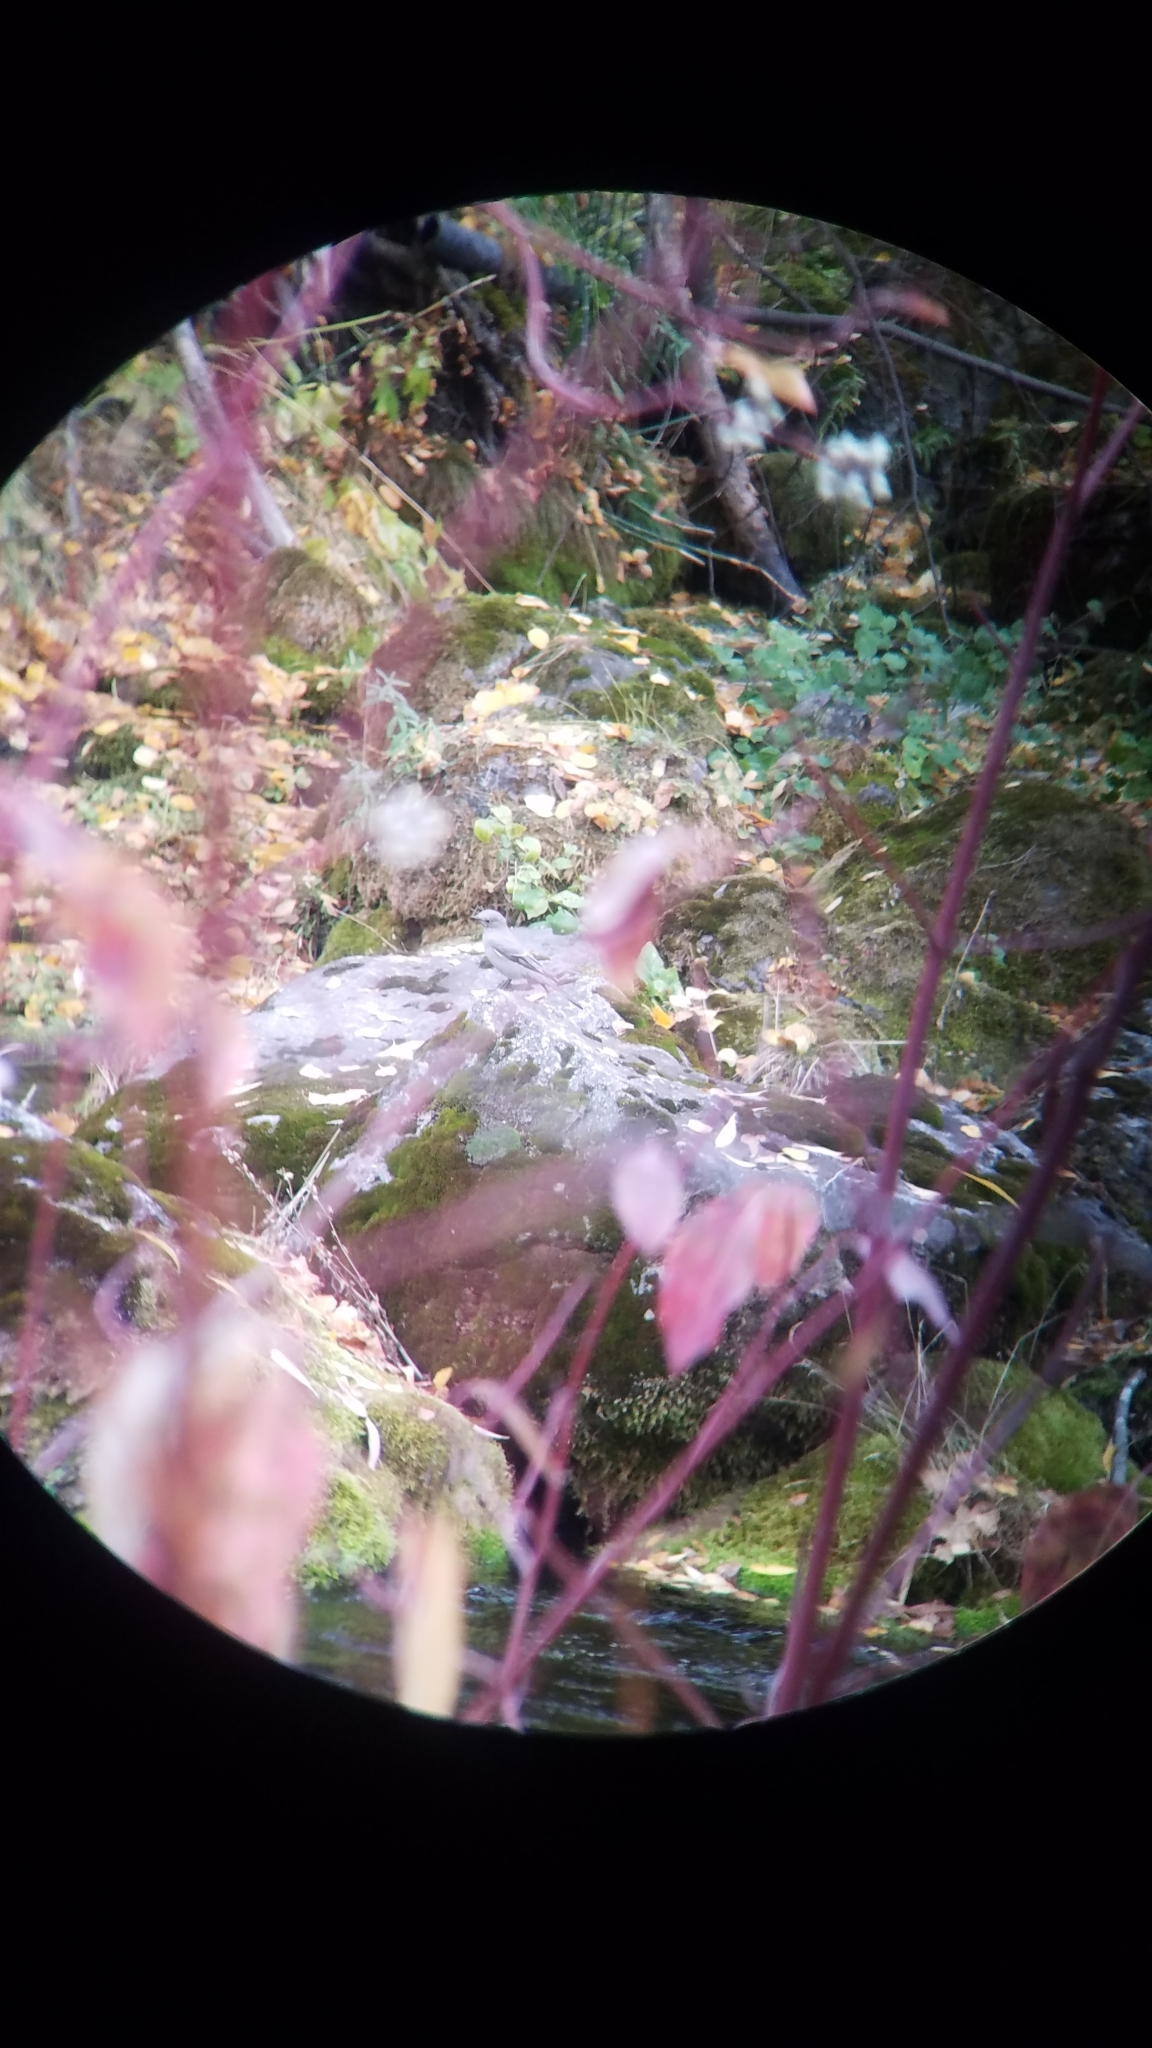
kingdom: Animalia
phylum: Chordata
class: Aves
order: Passeriformes
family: Turdidae
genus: Myadestes
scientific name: Myadestes townsendi
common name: Townsend's solitaire
